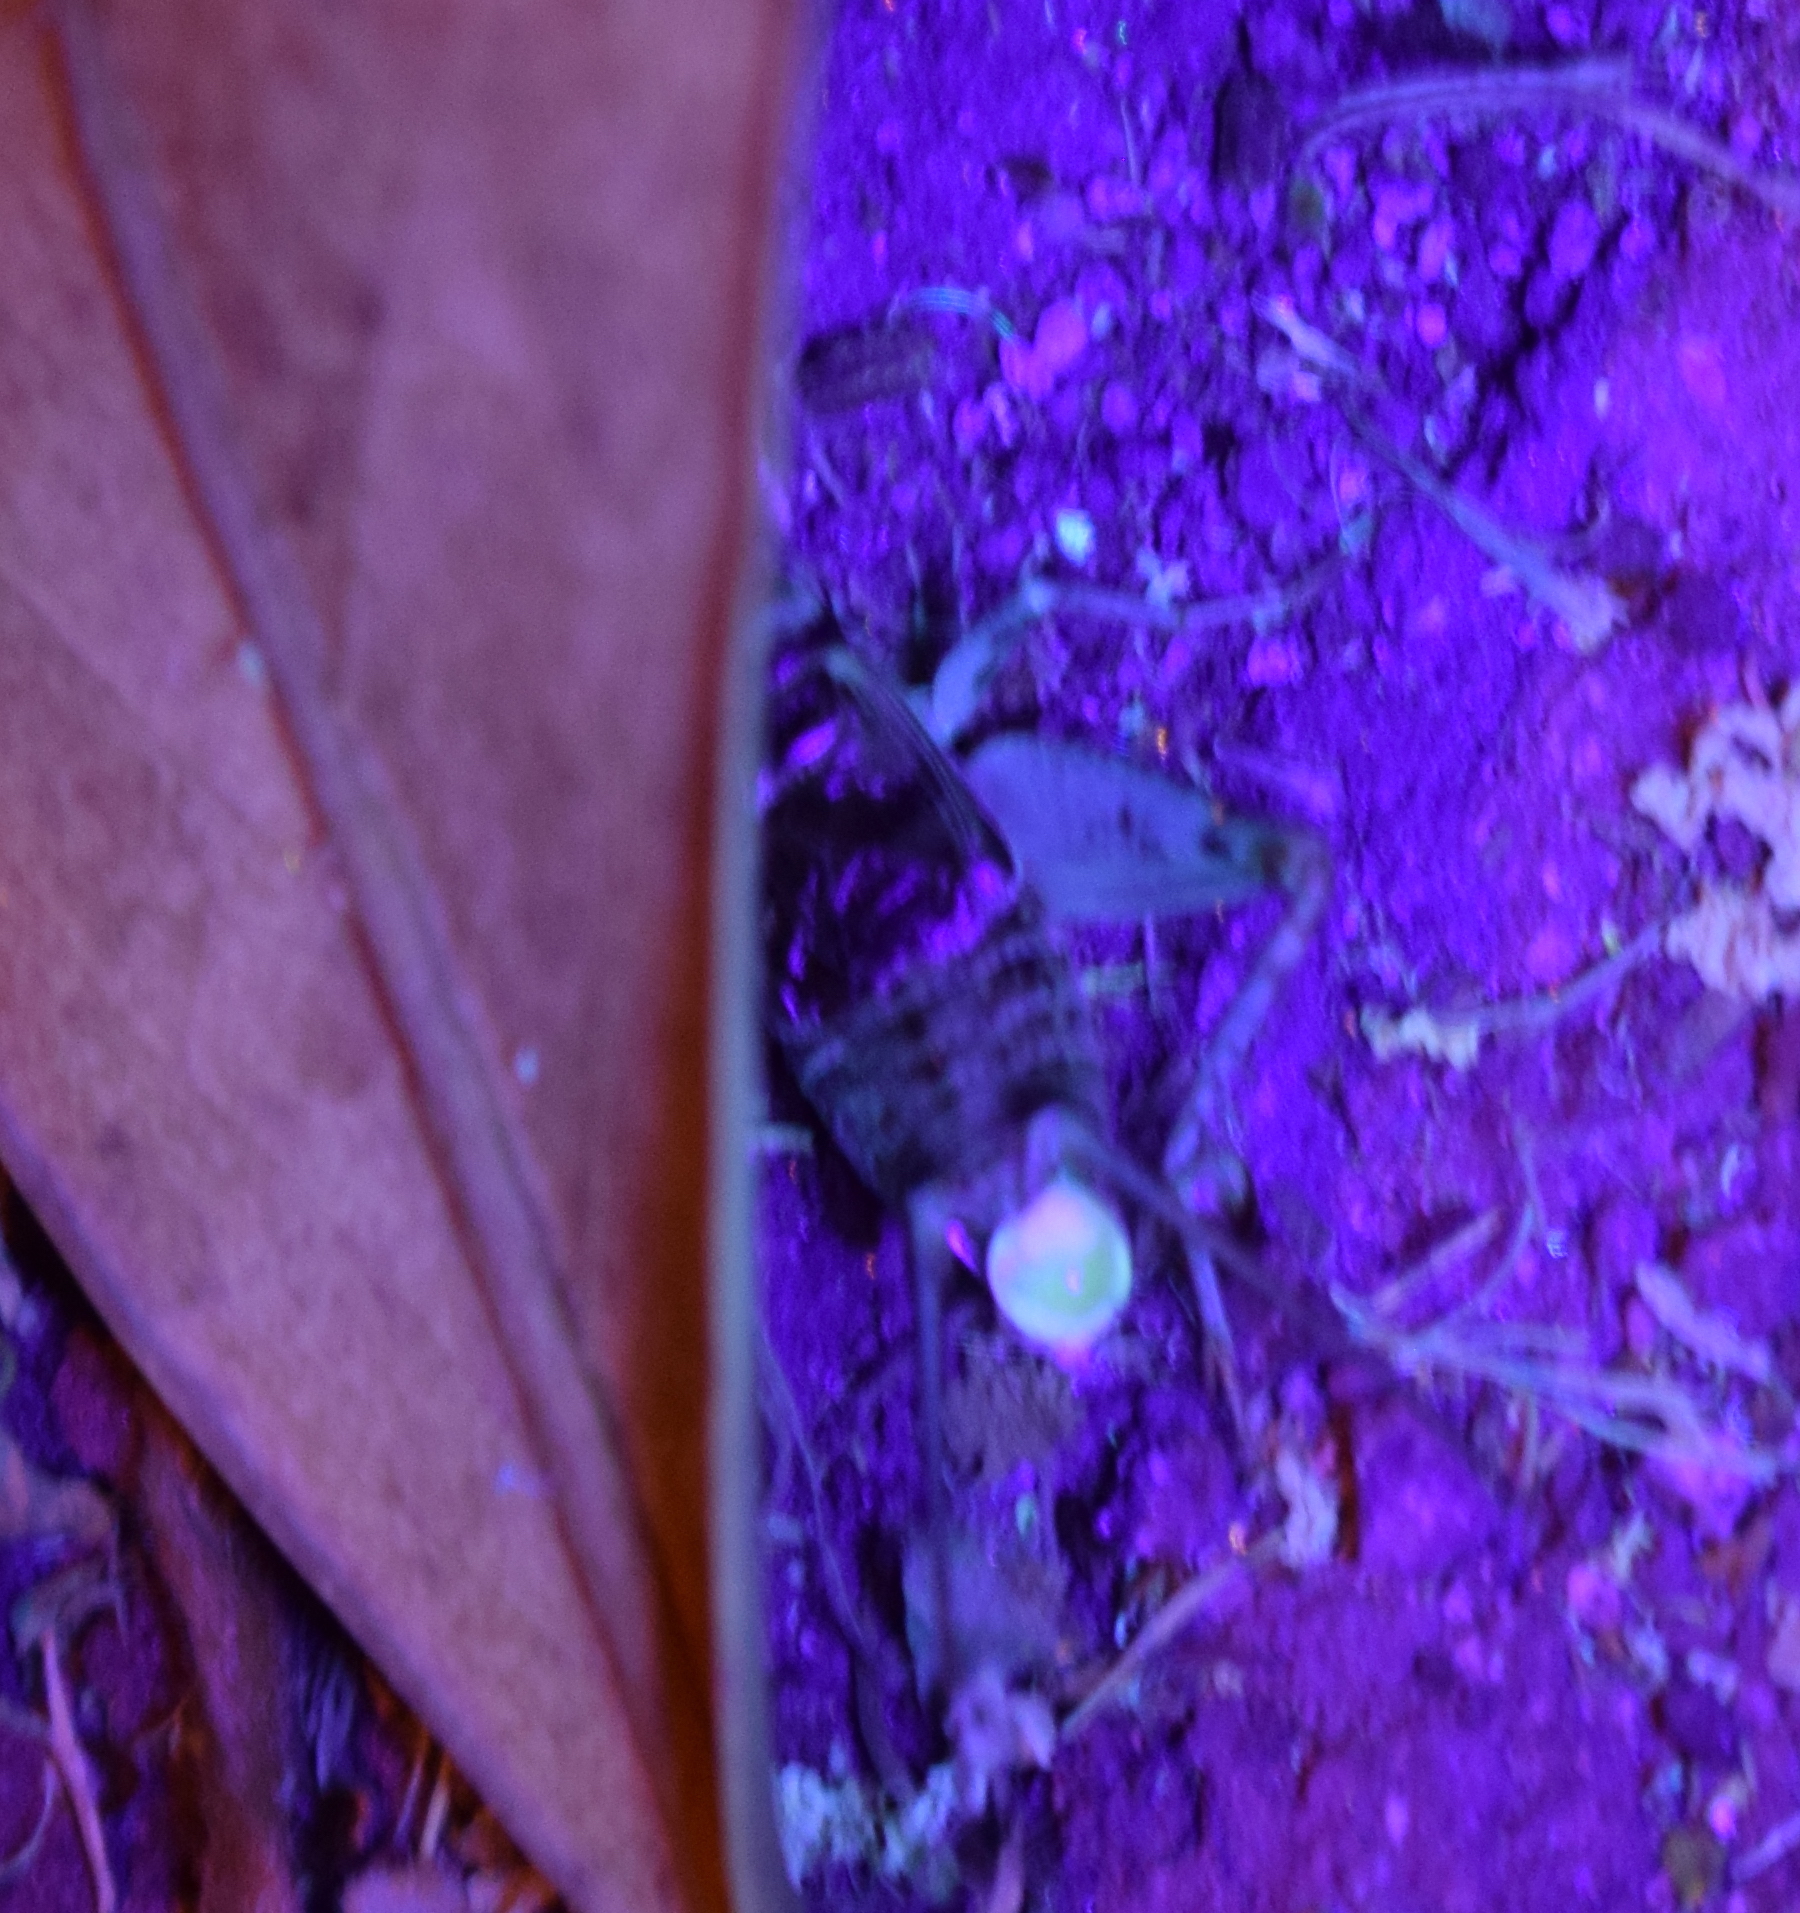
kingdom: Animalia
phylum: Arthropoda
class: Insecta
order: Orthoptera
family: Gryllidae
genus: Gryllodes
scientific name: Gryllodes sigillatus
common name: Tropical house cricket
